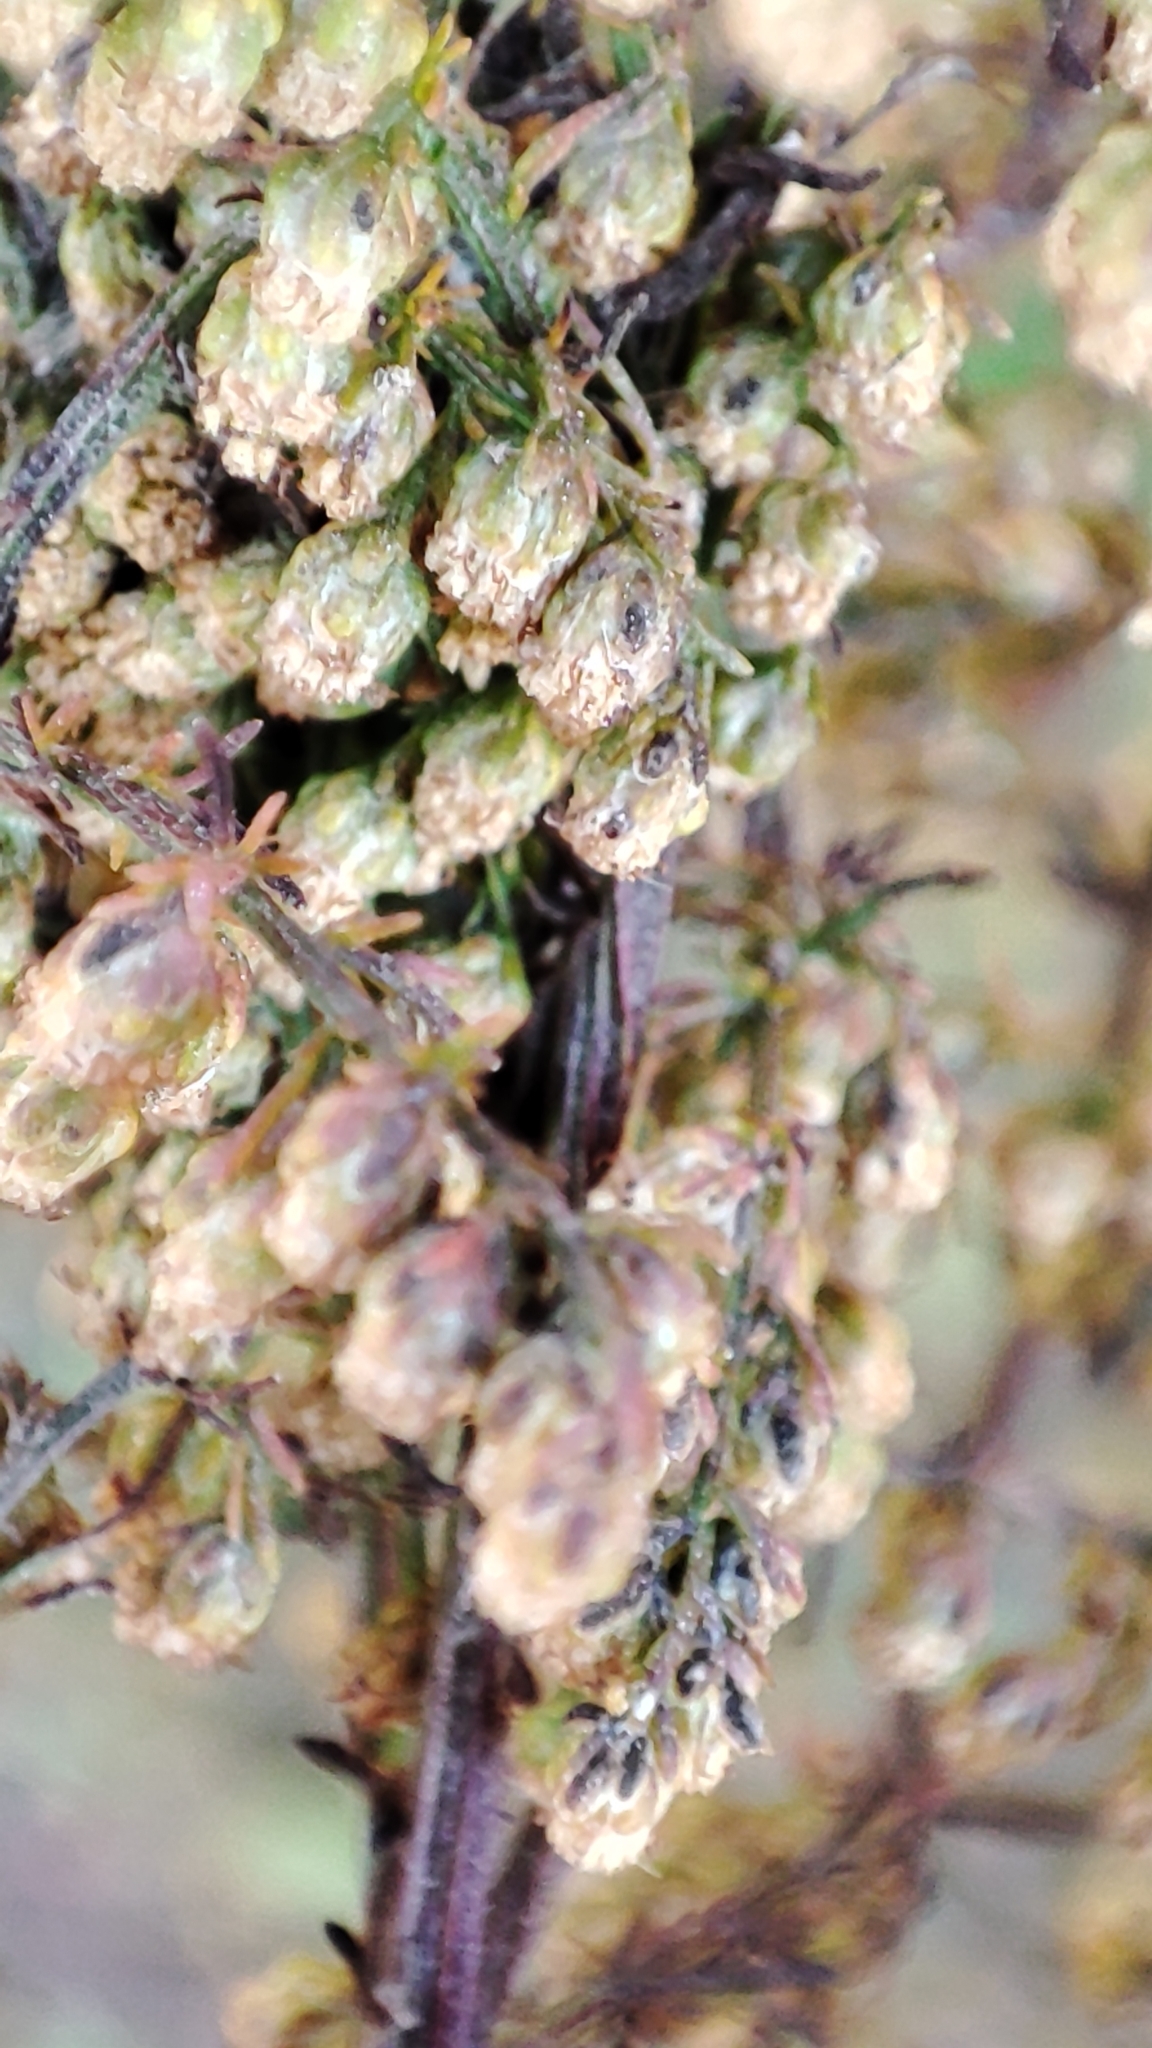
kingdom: Plantae
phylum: Tracheophyta
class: Magnoliopsida
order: Asterales
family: Asteraceae
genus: Artemisia
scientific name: Artemisia annua
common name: Sweet sagewort
